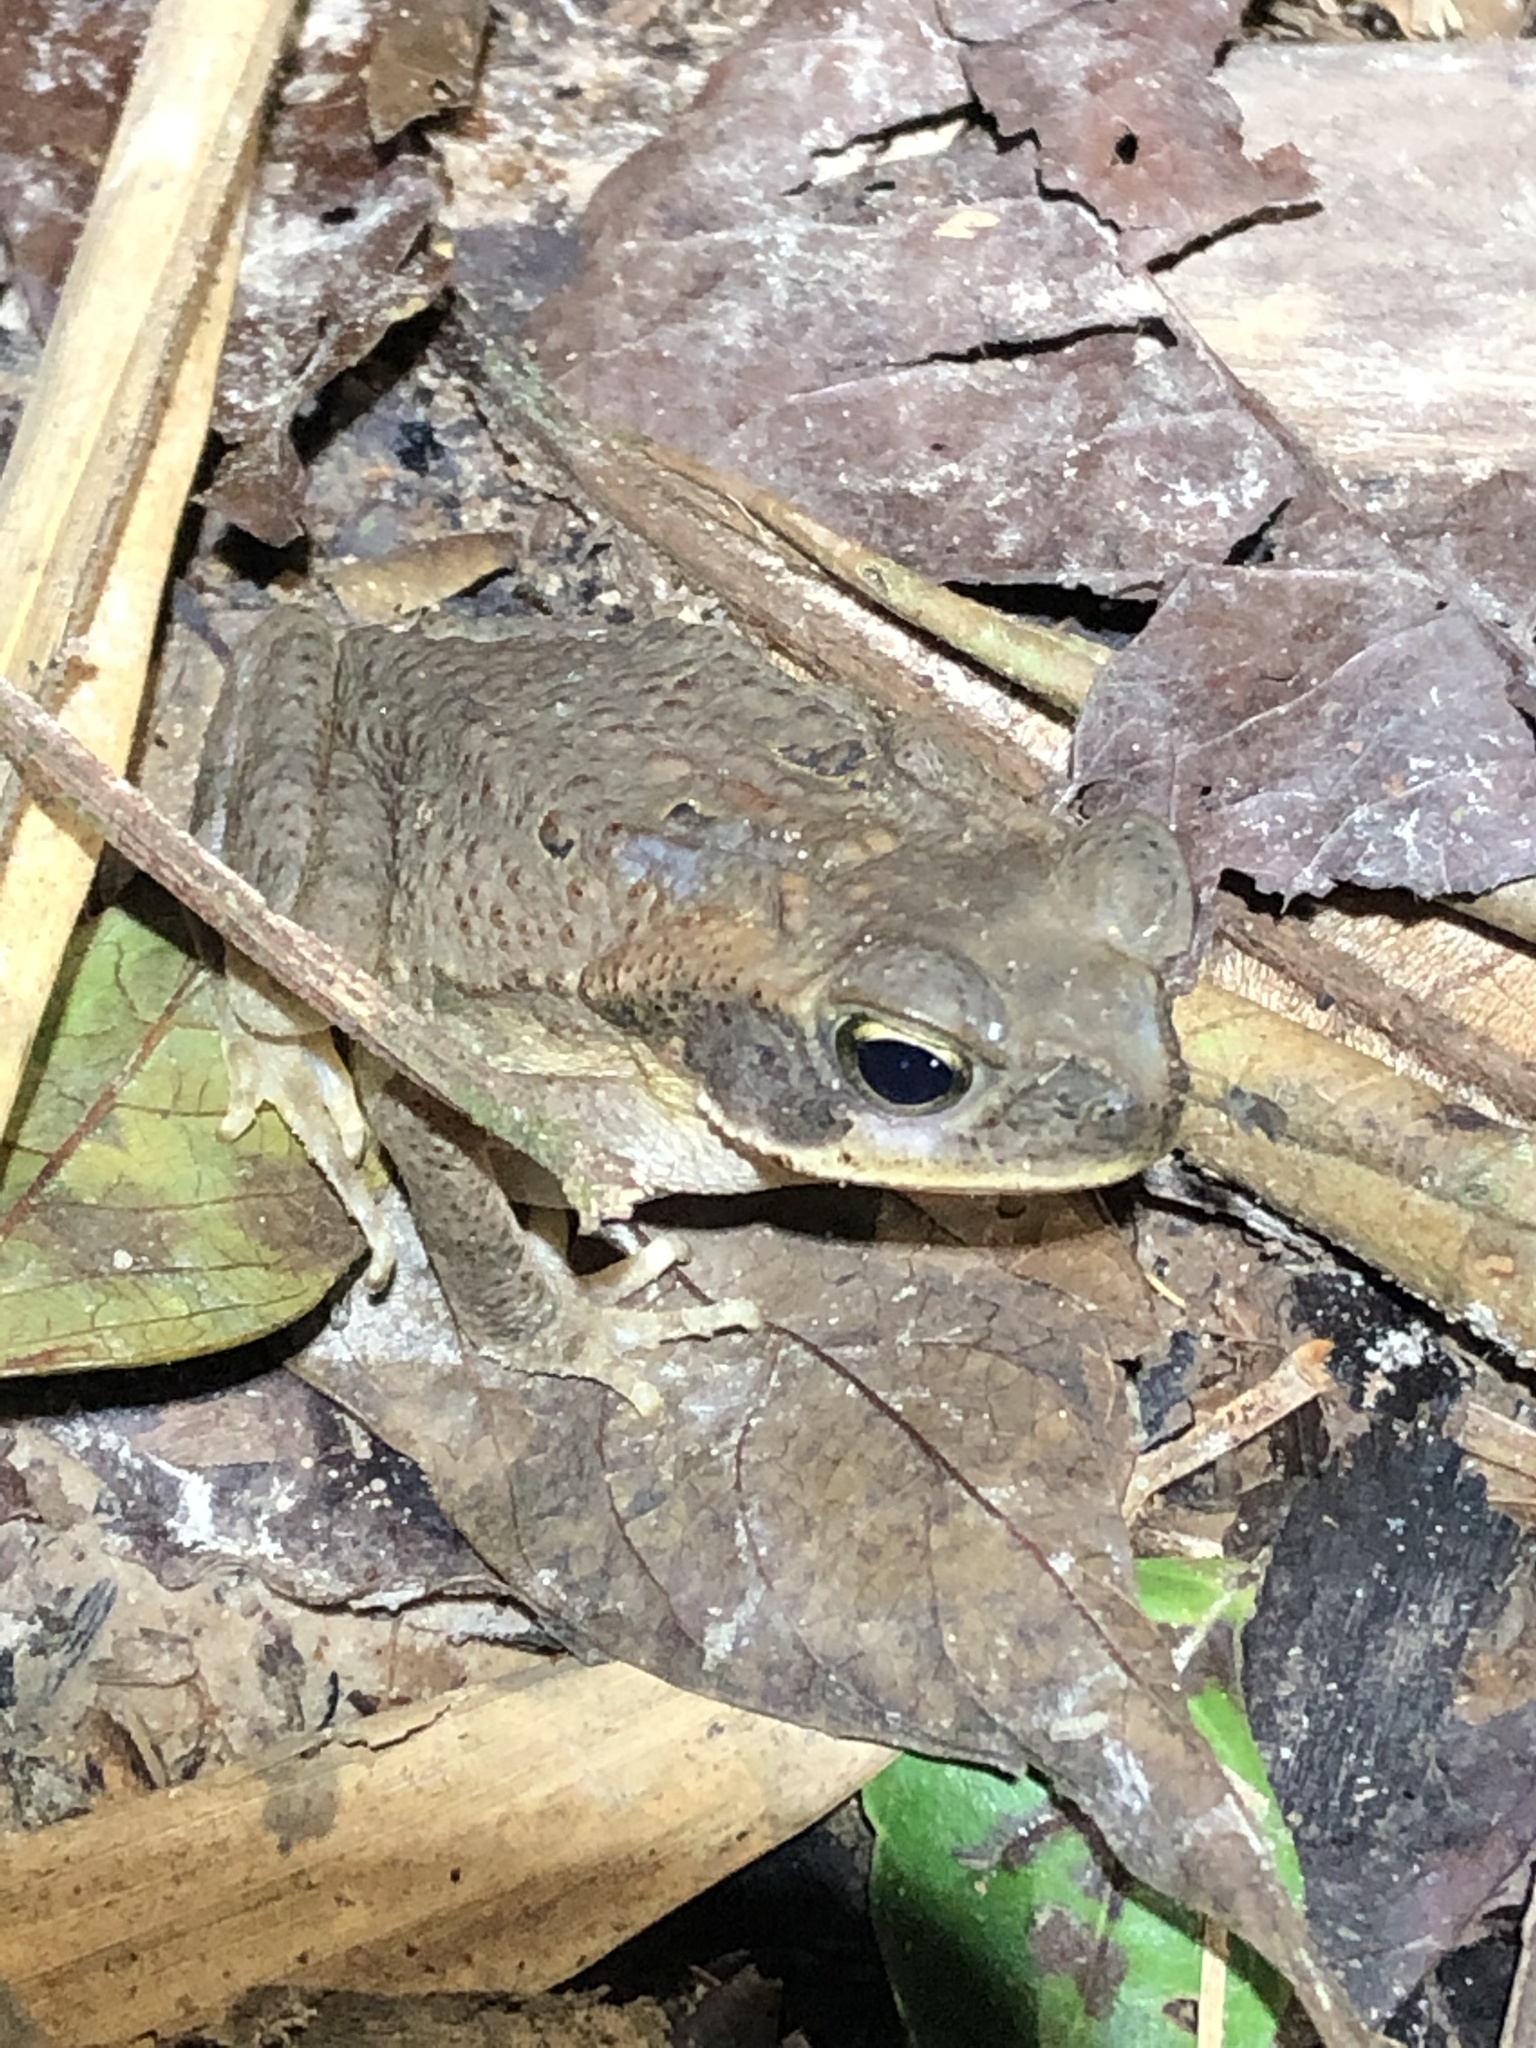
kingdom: Animalia
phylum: Chordata
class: Amphibia
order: Anura
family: Bufonidae
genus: Rhinella
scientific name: Rhinella marina
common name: Cane toad
